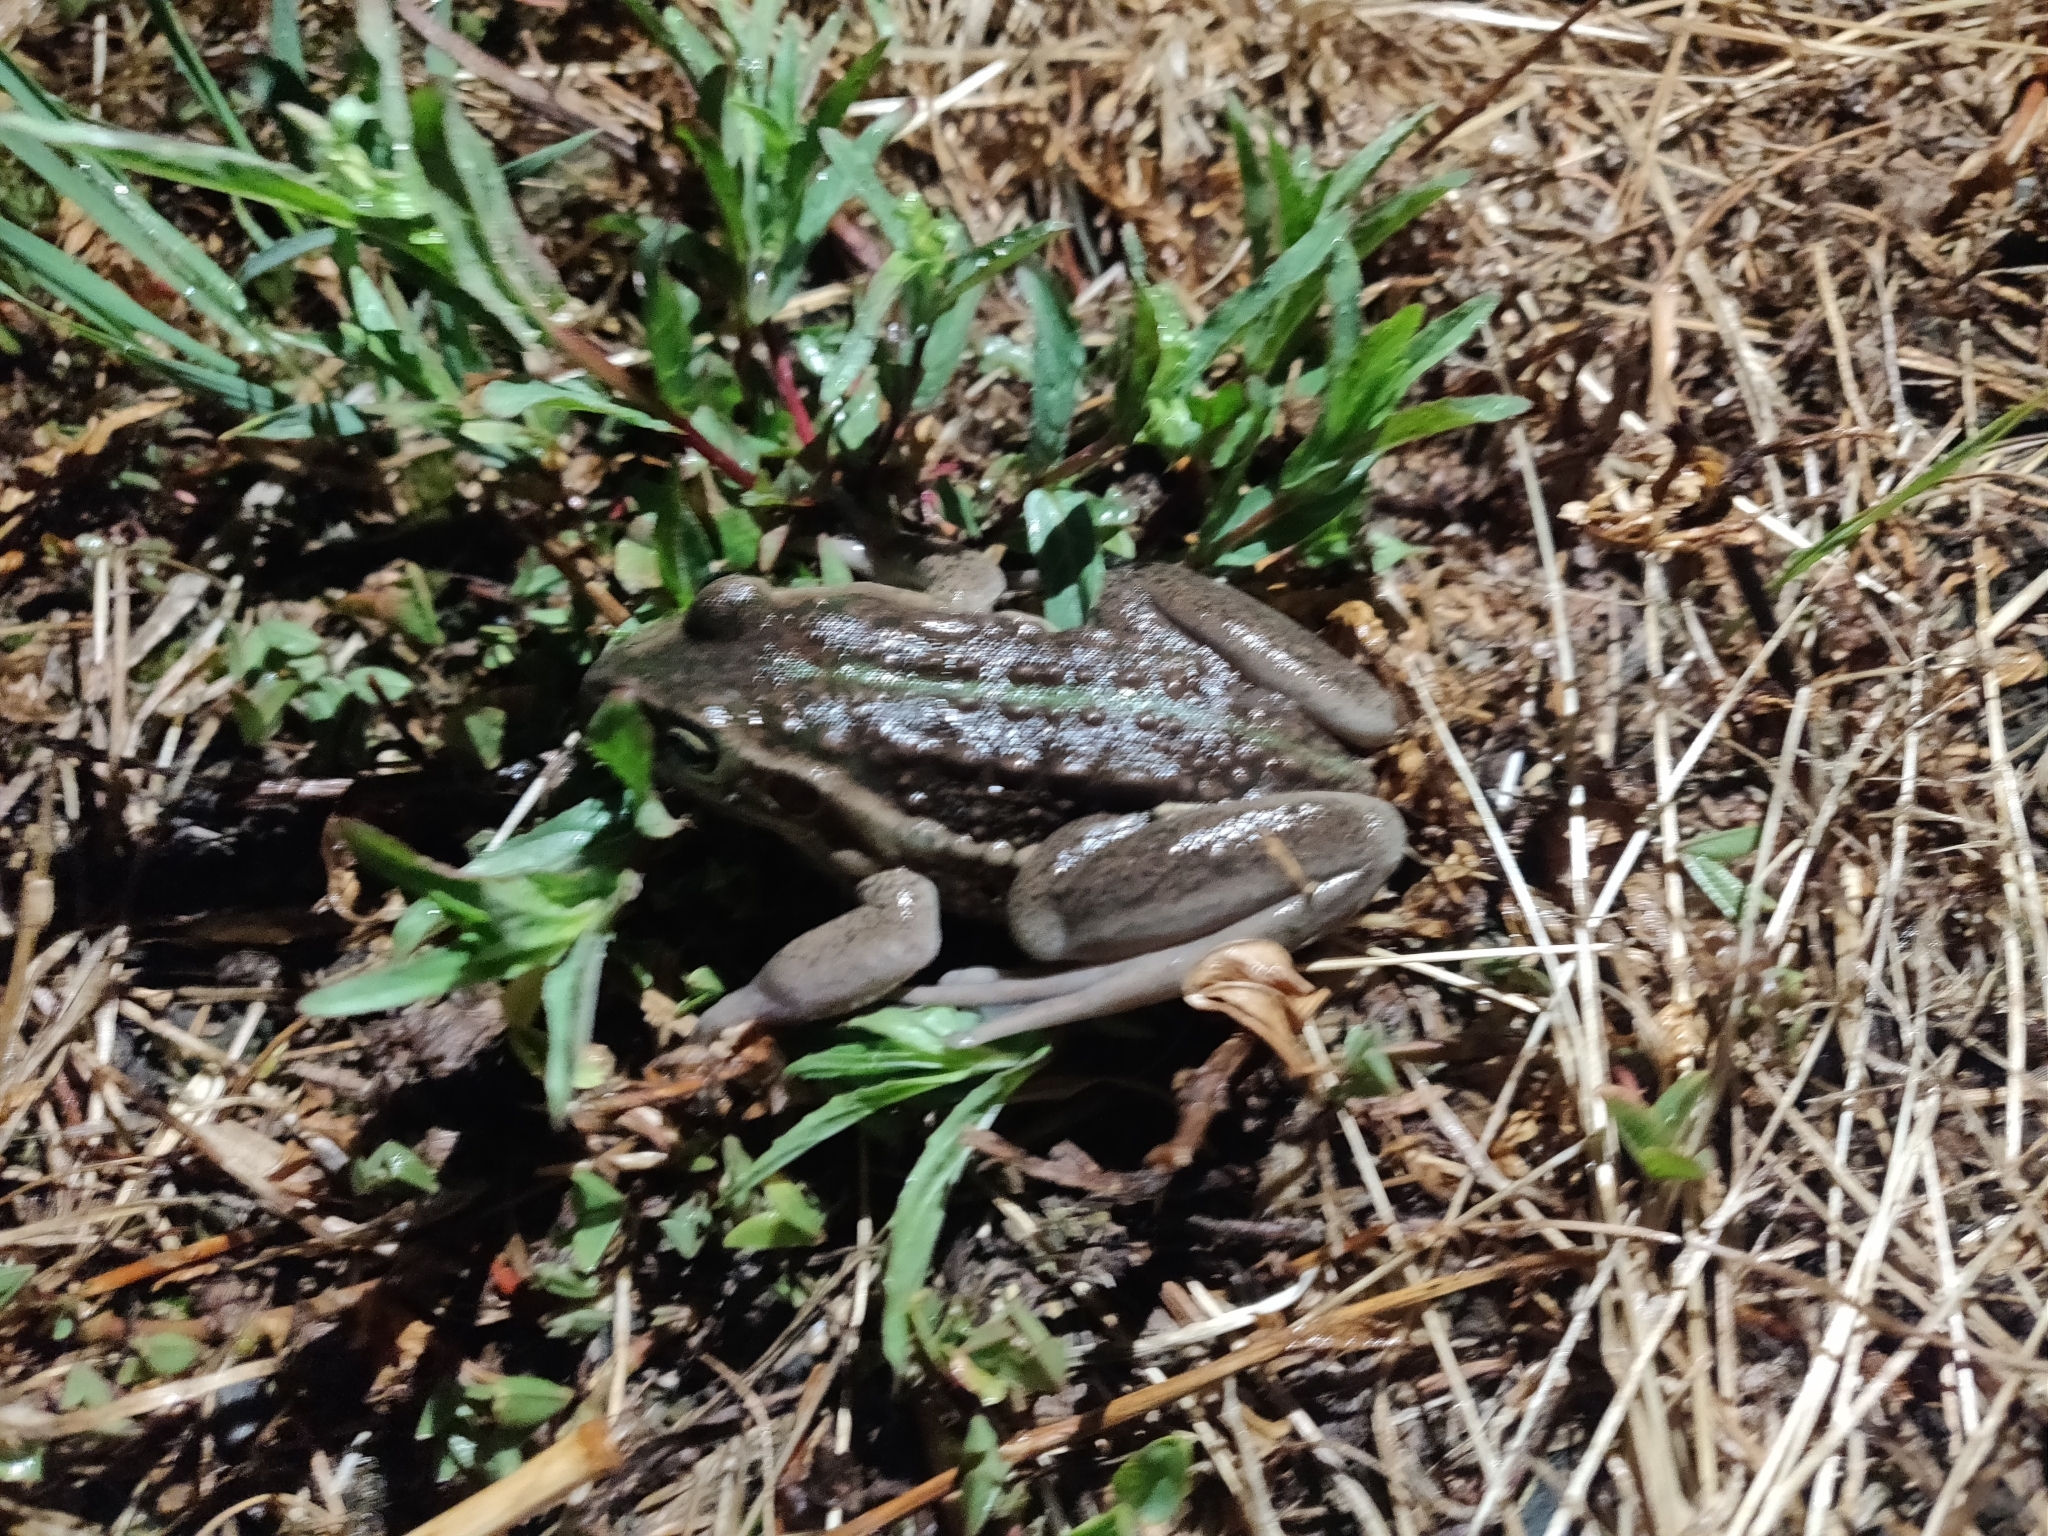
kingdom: Animalia
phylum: Chordata
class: Amphibia
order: Anura
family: Pelodryadidae
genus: Ranoidea
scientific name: Ranoidea raniformis
